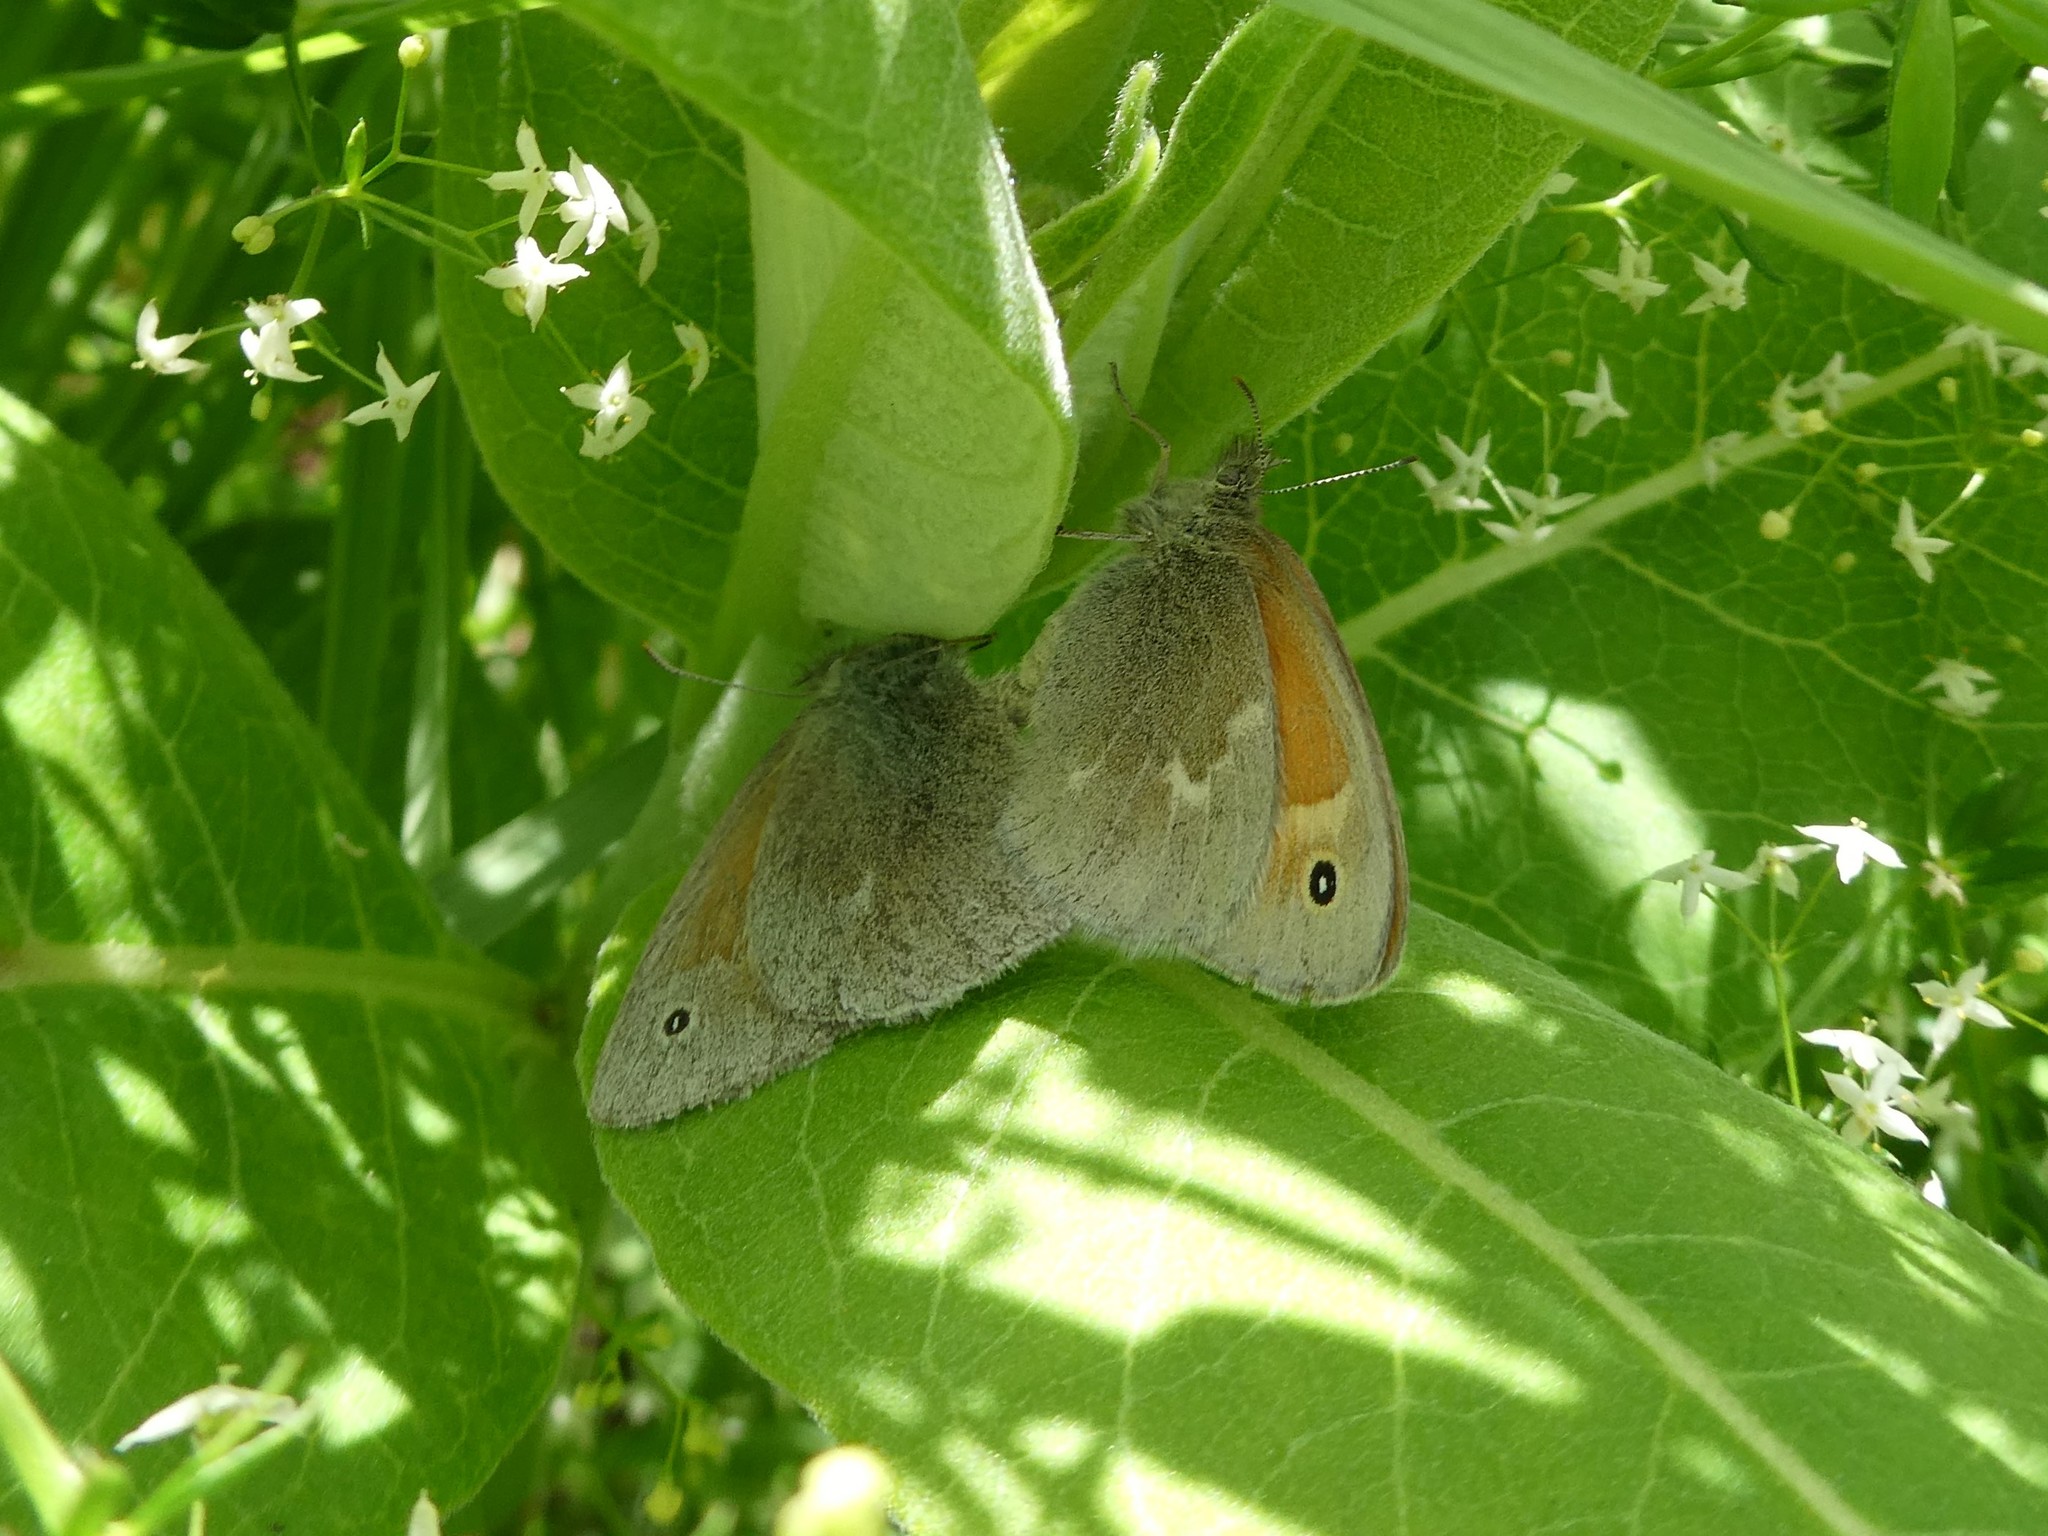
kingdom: Animalia
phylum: Arthropoda
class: Insecta
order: Lepidoptera
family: Nymphalidae
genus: Coenonympha
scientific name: Coenonympha california
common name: Common ringlet
